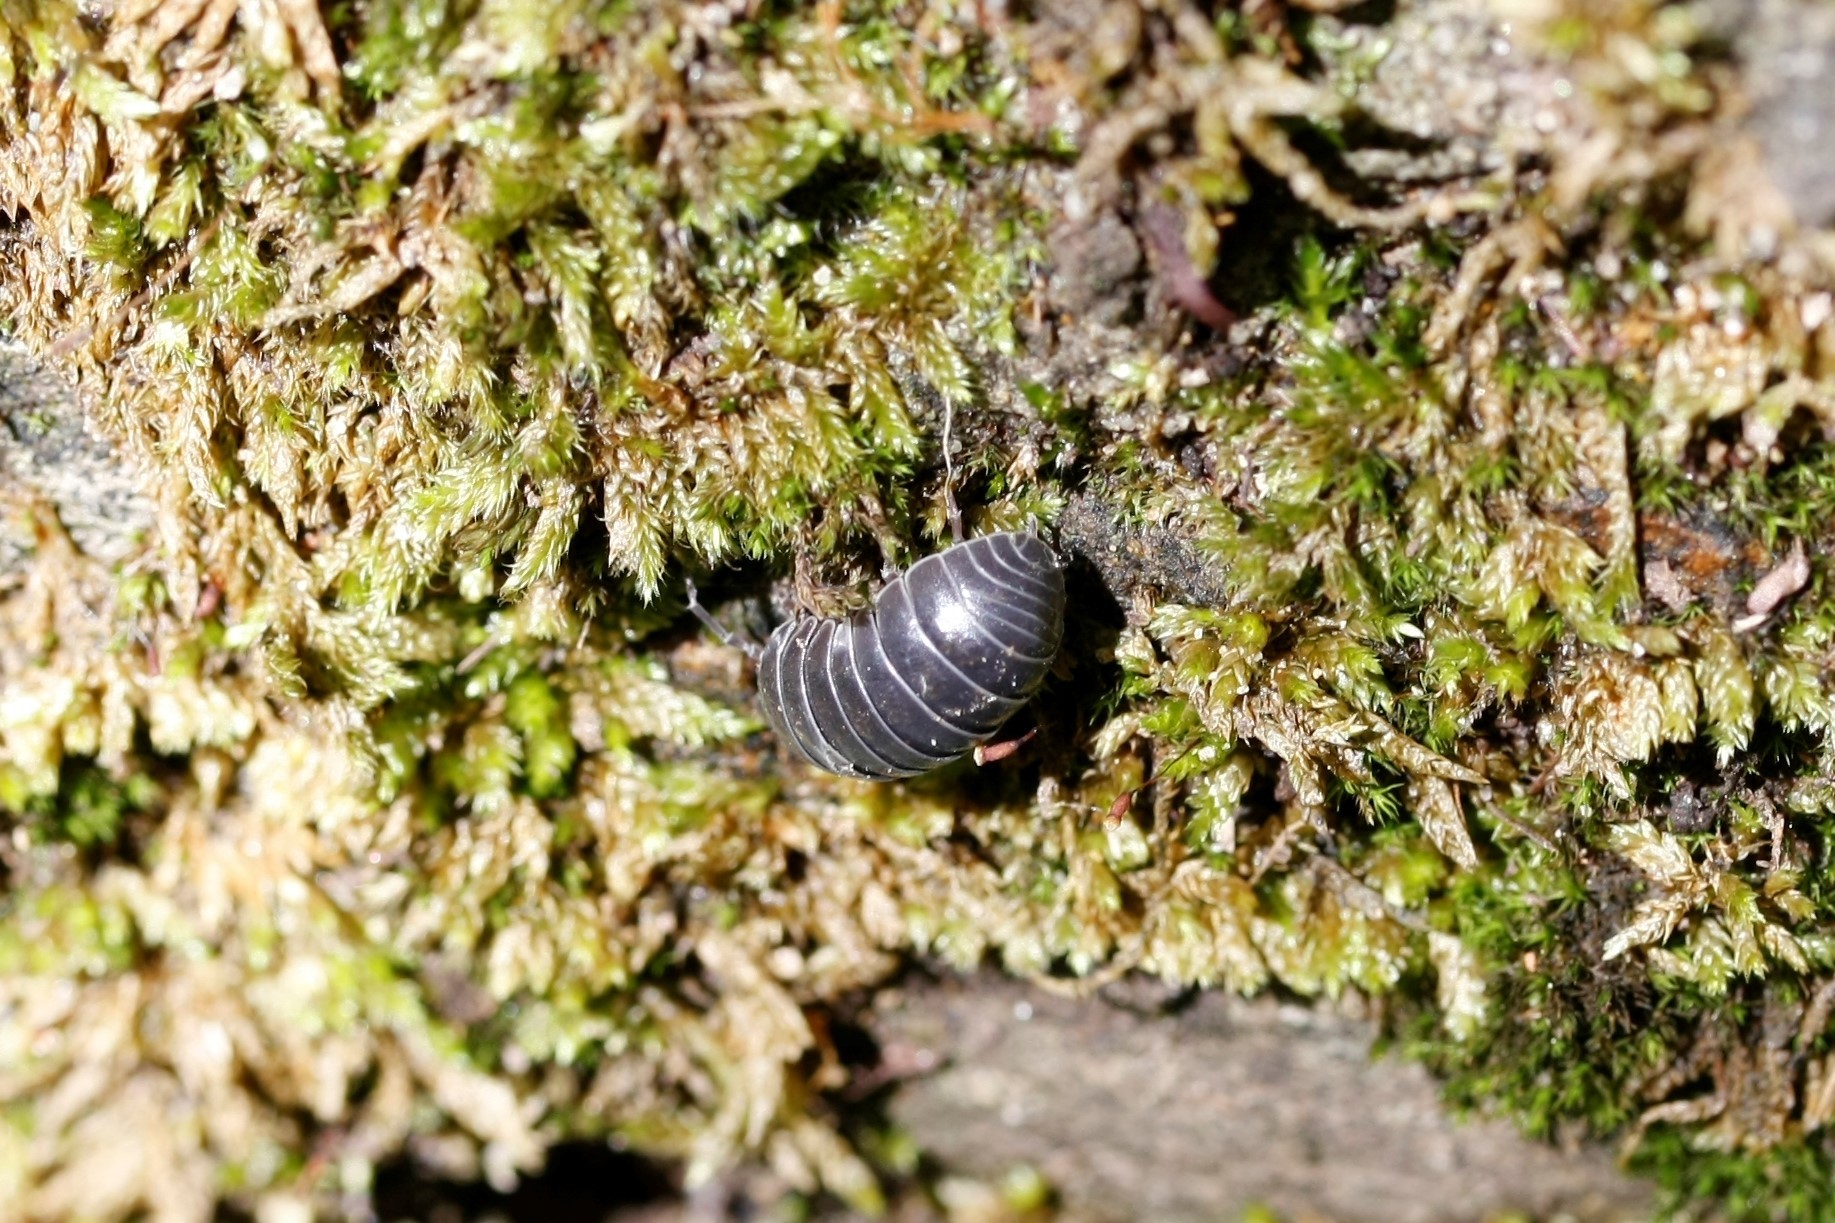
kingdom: Animalia
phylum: Arthropoda
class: Malacostraca
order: Isopoda
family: Armadillidiidae
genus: Armadillidium
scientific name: Armadillidium vulgare
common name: Common pill woodlouse
